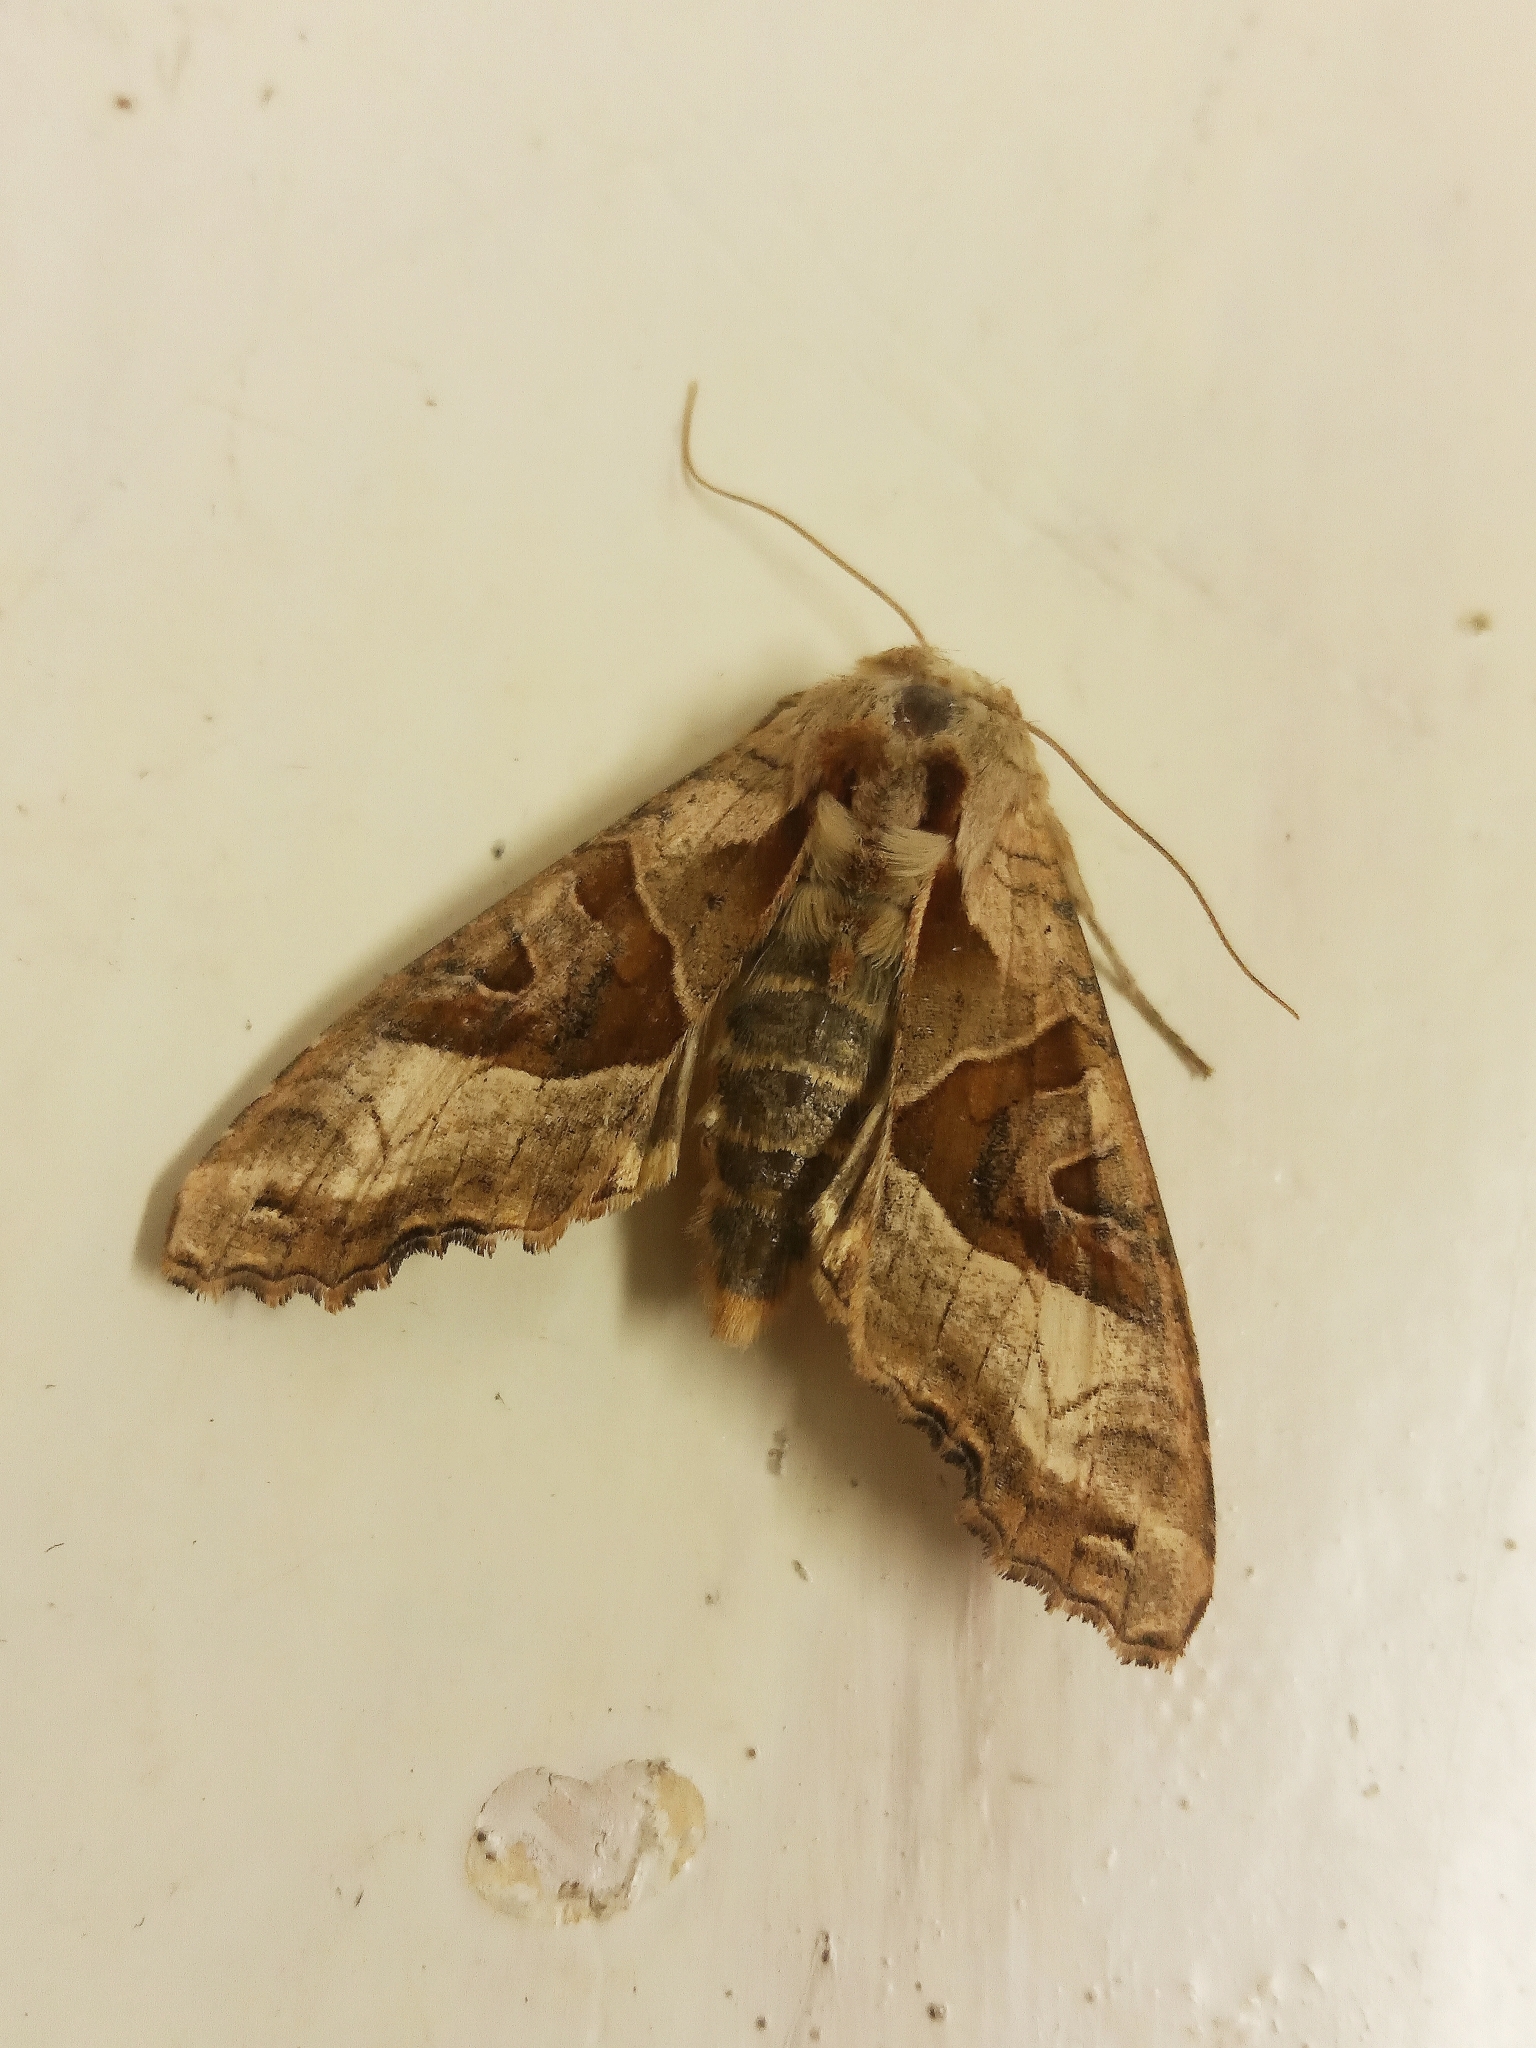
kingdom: Animalia
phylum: Arthropoda
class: Insecta
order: Lepidoptera
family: Noctuidae
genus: Phlogophora
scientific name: Phlogophora meticulosa
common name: Angle shades
